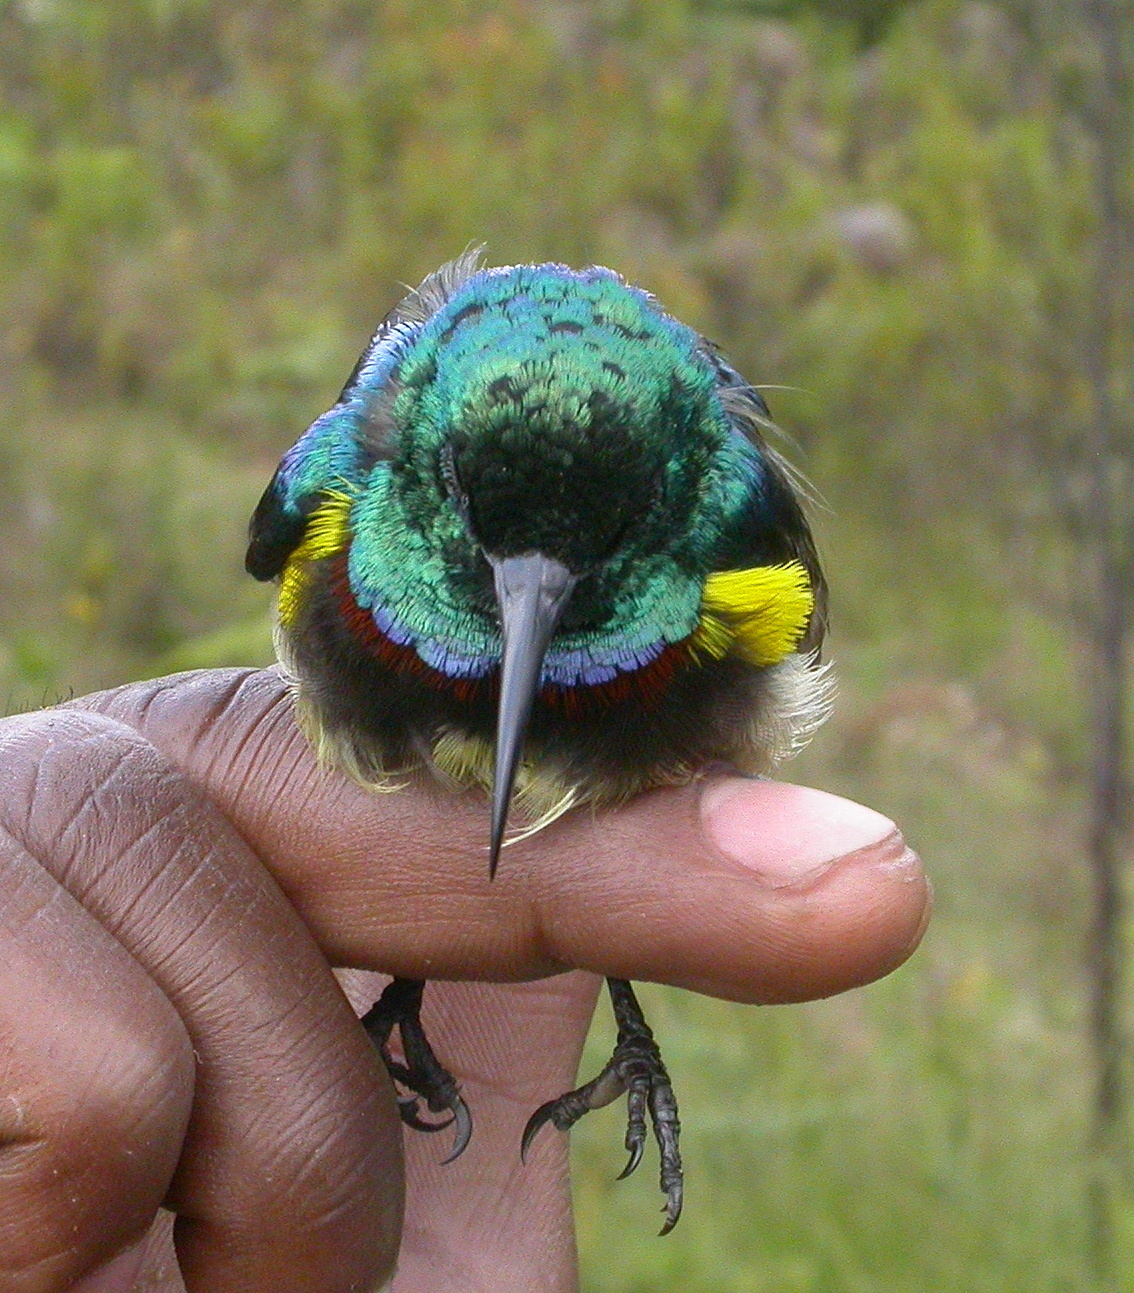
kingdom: Animalia
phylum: Chordata
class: Aves
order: Passeriformes
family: Nectariniidae
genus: Cinnyris
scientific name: Cinnyris sovimanga
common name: Souimanga sunbird
